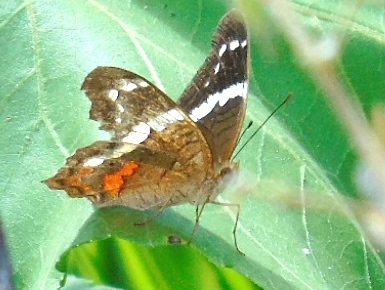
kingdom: Animalia
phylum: Arthropoda
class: Insecta
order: Lepidoptera
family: Nymphalidae
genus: Anartia
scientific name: Anartia fatima
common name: Banded peacock
